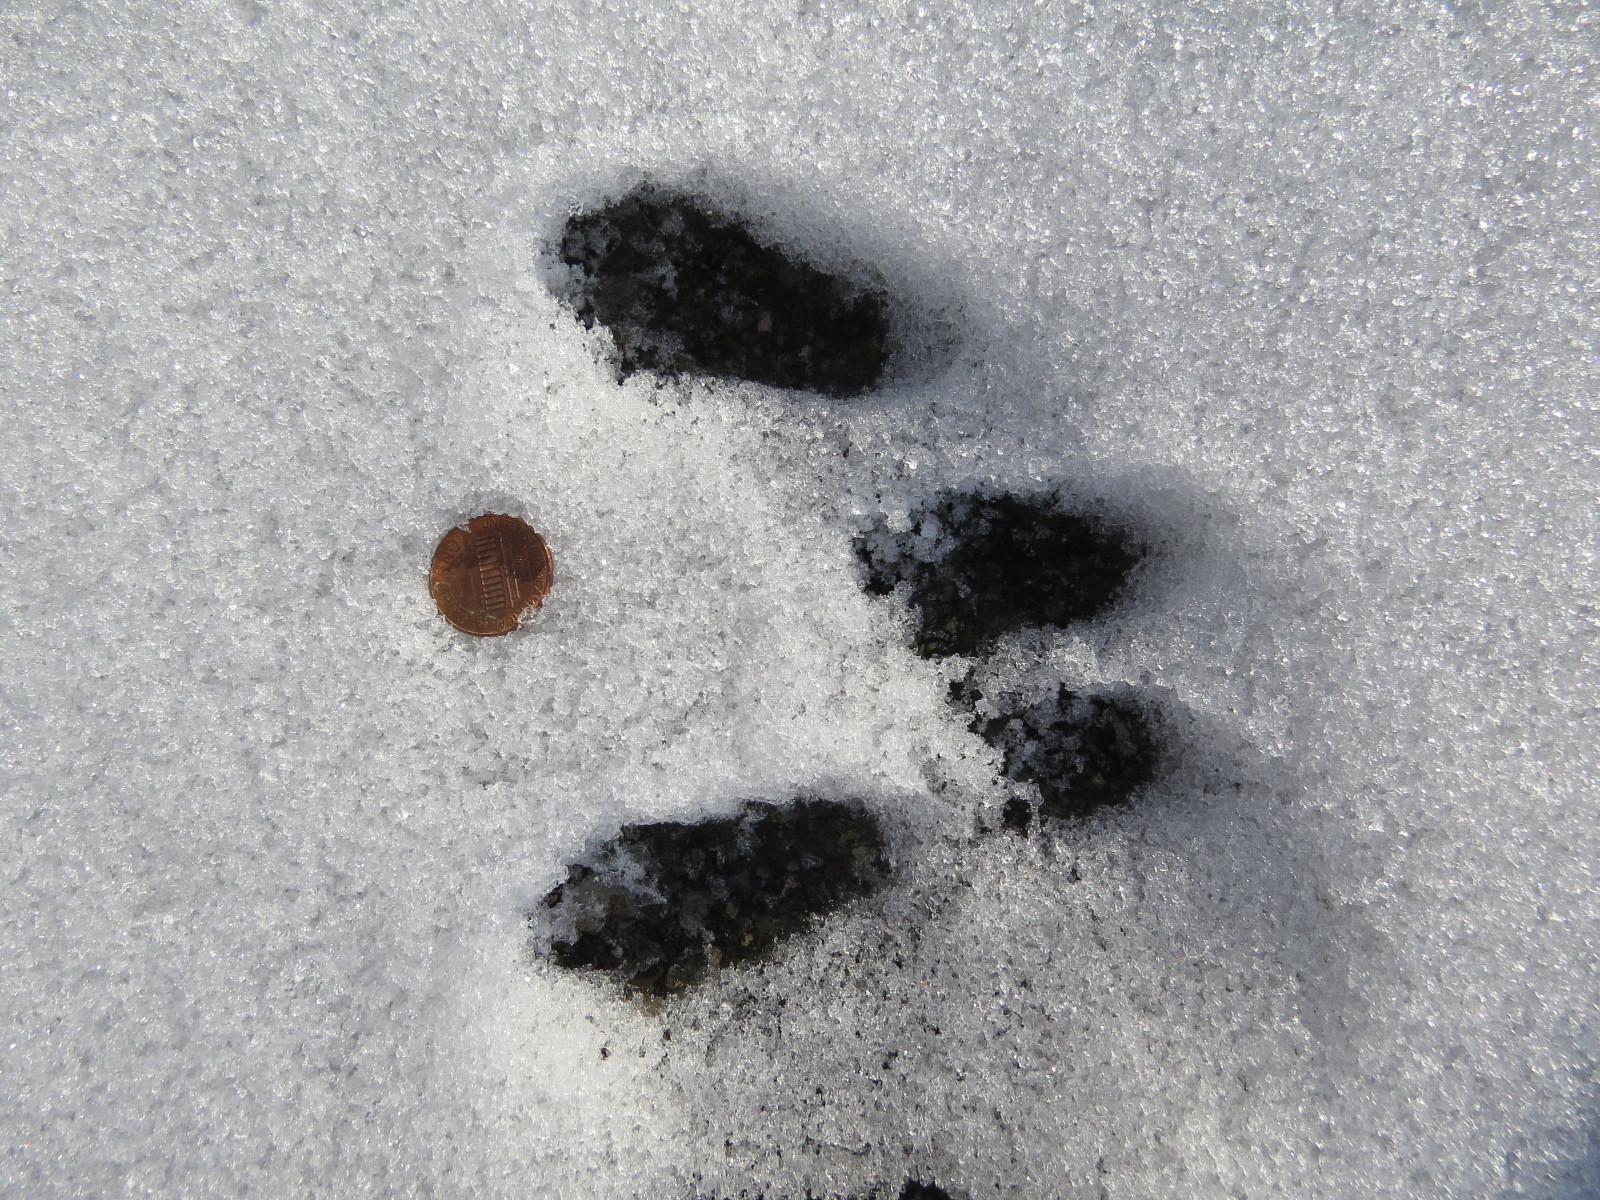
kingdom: Animalia
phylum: Chordata
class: Mammalia
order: Rodentia
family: Sciuridae
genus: Tamiasciurus
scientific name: Tamiasciurus hudsonicus
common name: Red squirrel
